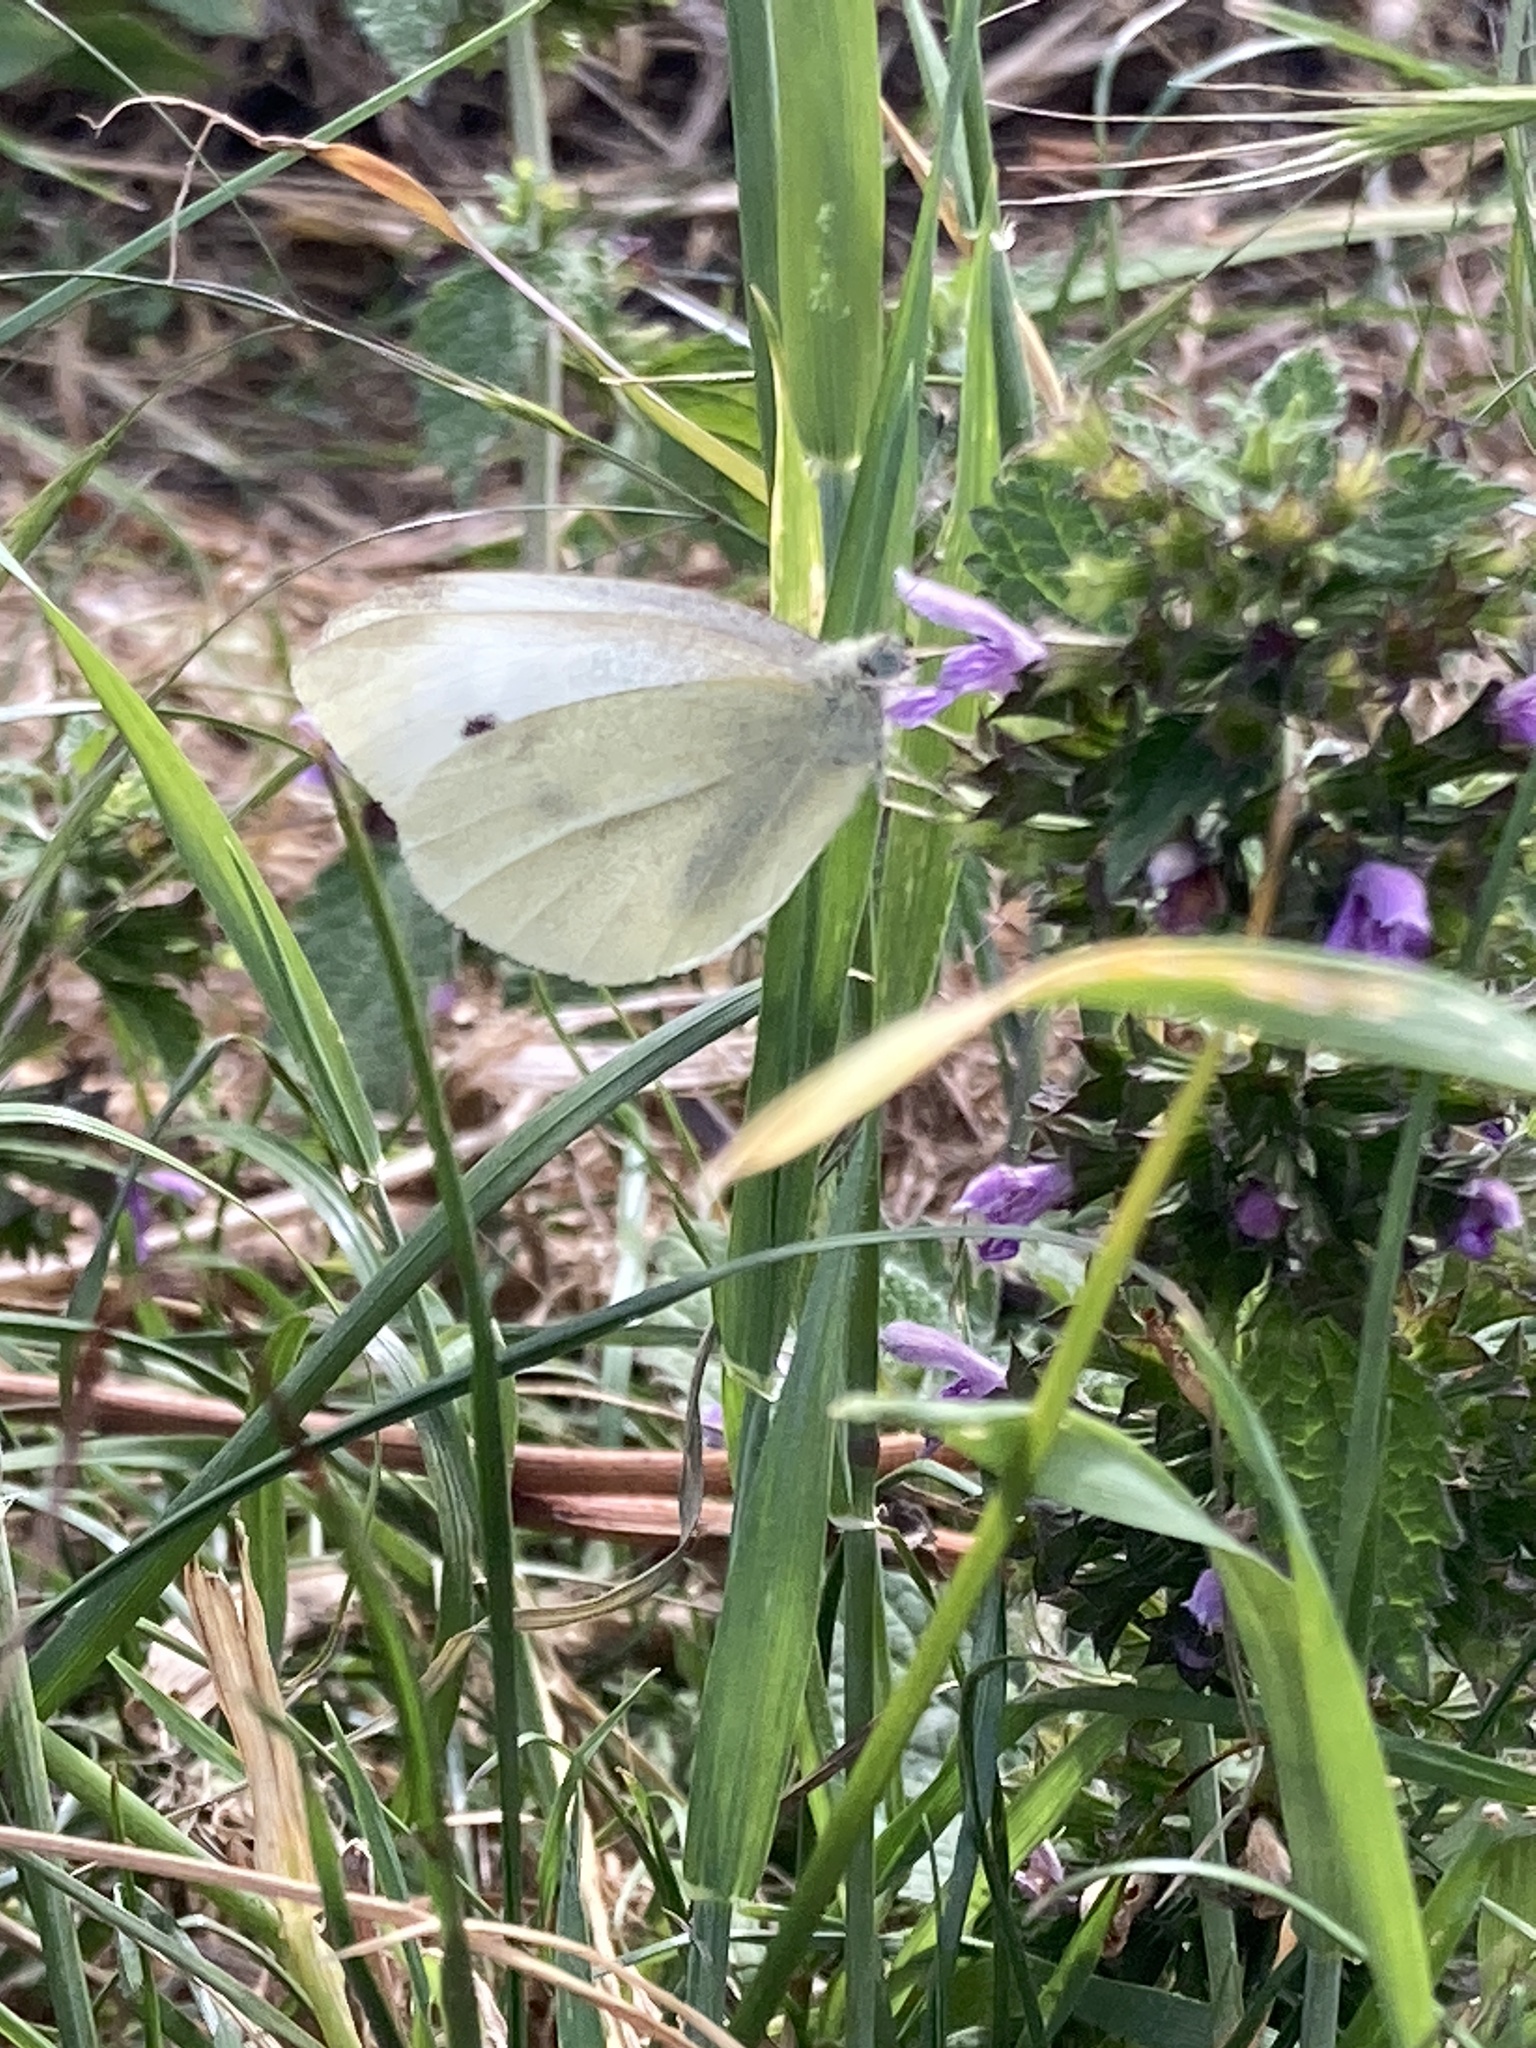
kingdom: Animalia
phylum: Arthropoda
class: Insecta
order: Lepidoptera
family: Pieridae
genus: Pieris
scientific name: Pieris rapae
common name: Small white
